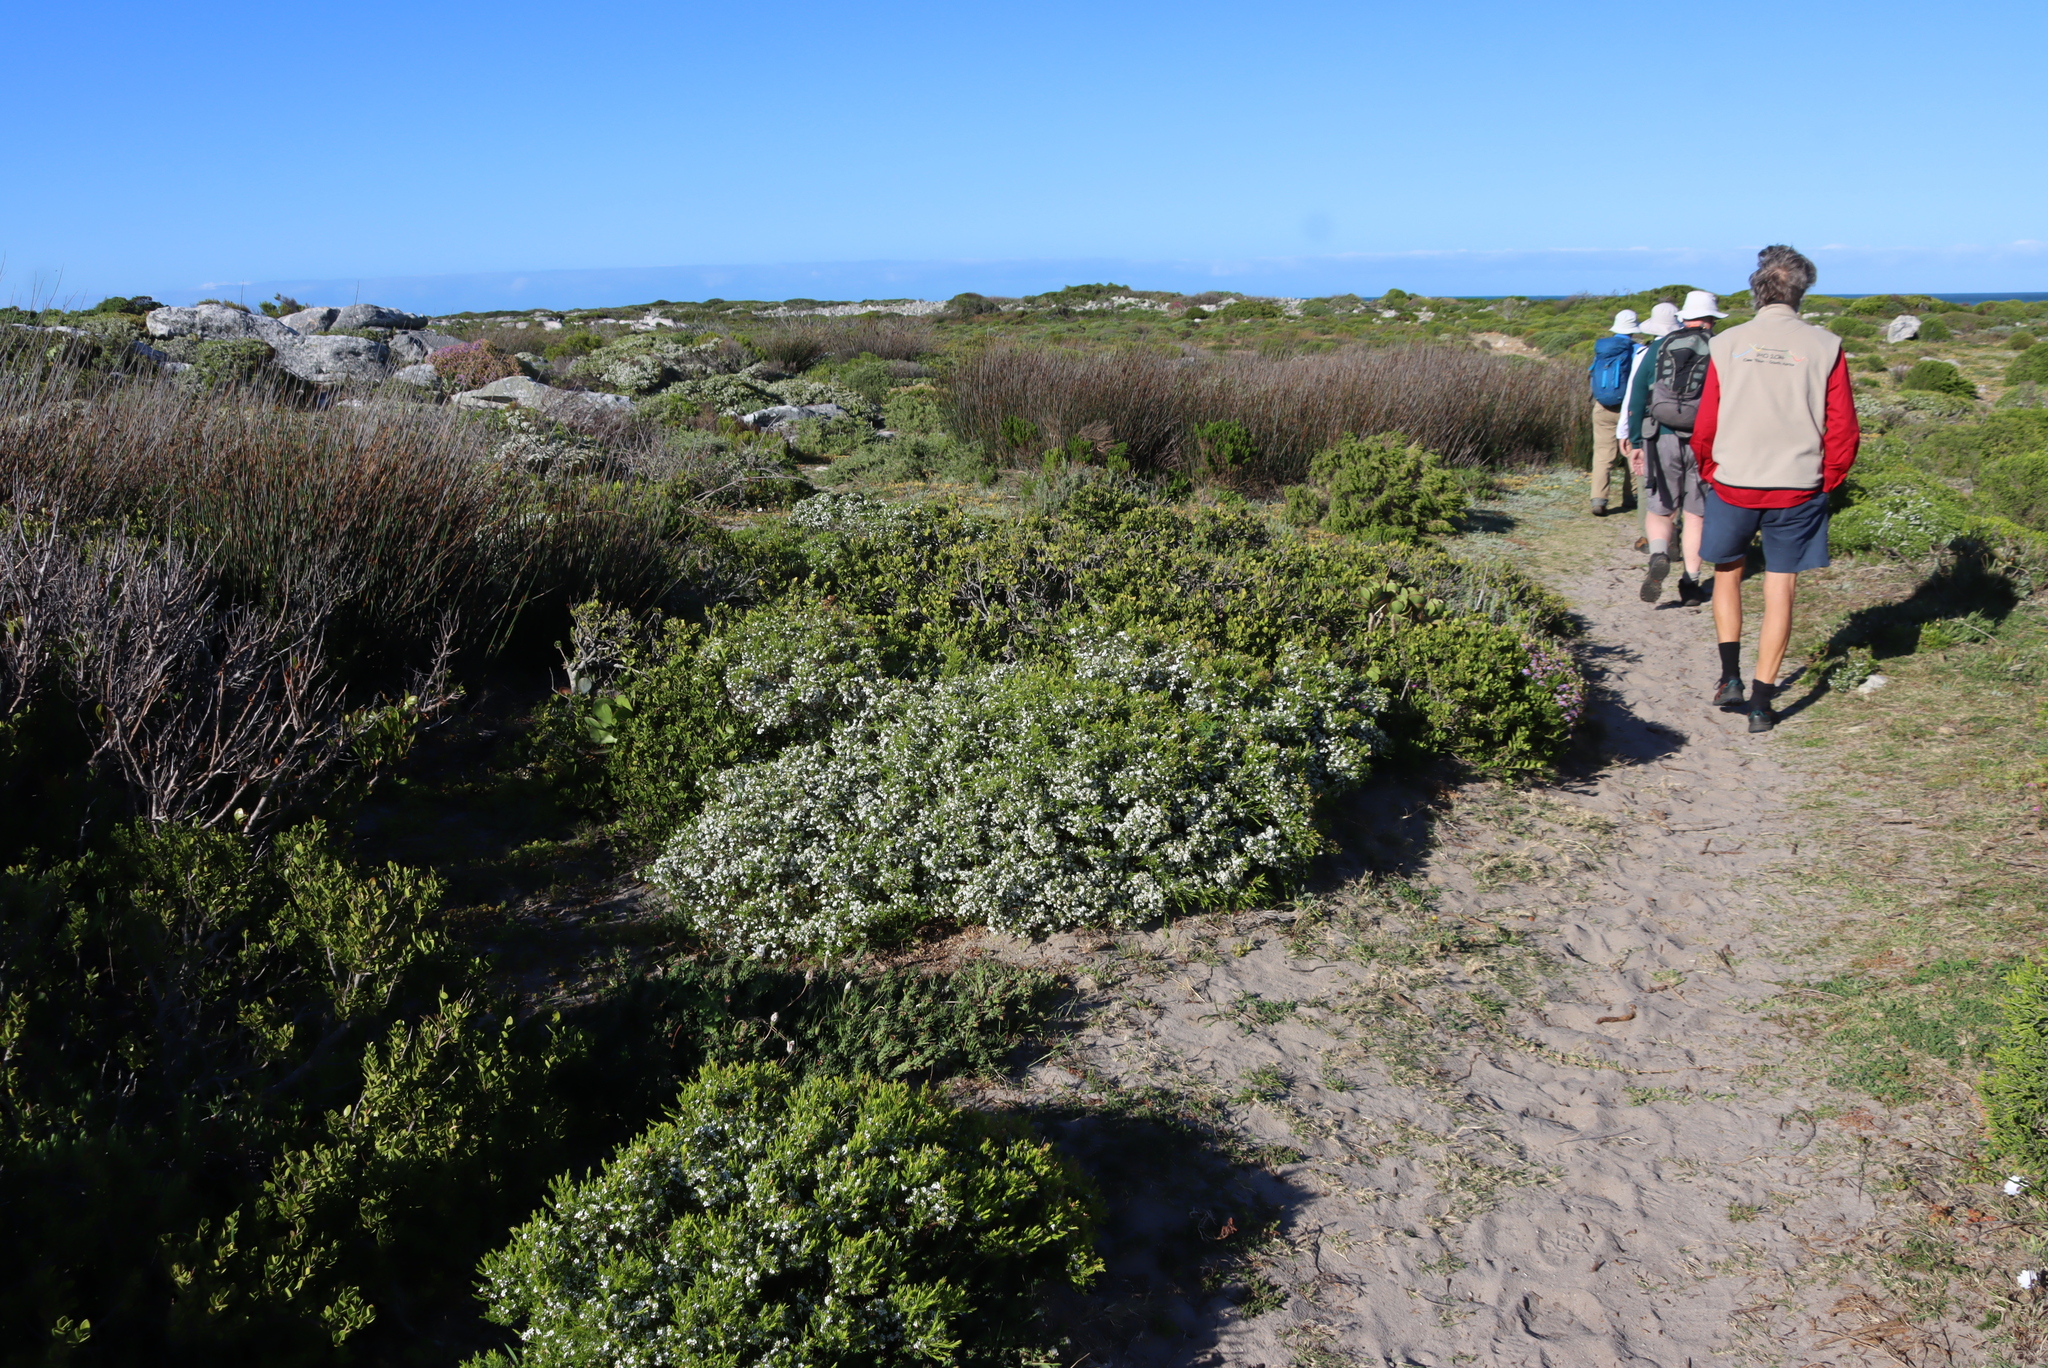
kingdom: Plantae
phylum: Tracheophyta
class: Magnoliopsida
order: Sapindales
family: Rutaceae
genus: Coleonema
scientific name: Coleonema album
